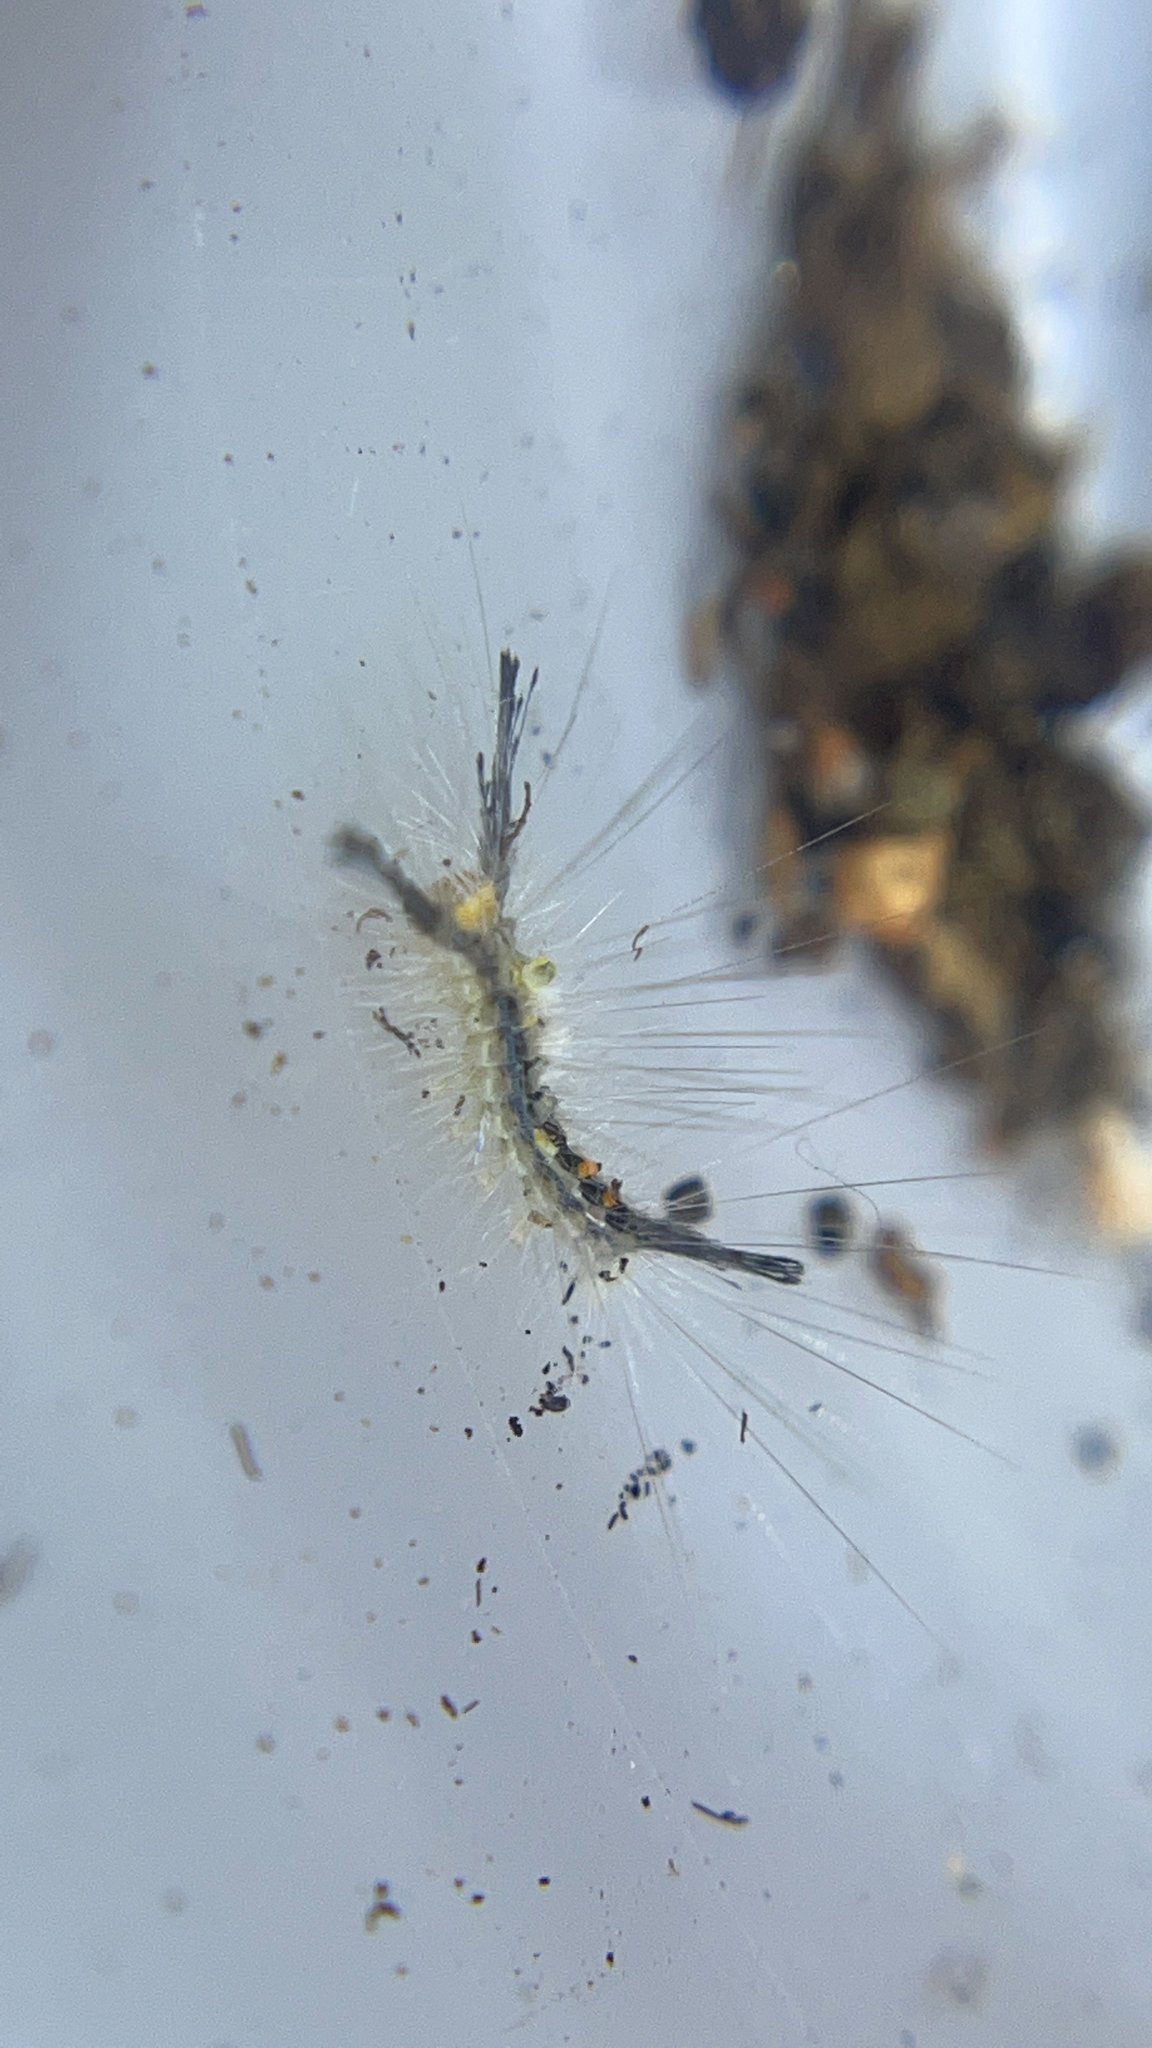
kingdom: Animalia
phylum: Arthropoda
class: Insecta
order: Lepidoptera
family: Erebidae
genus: Orgyia
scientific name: Orgyia leucostigma
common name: White-marked tussock moth
